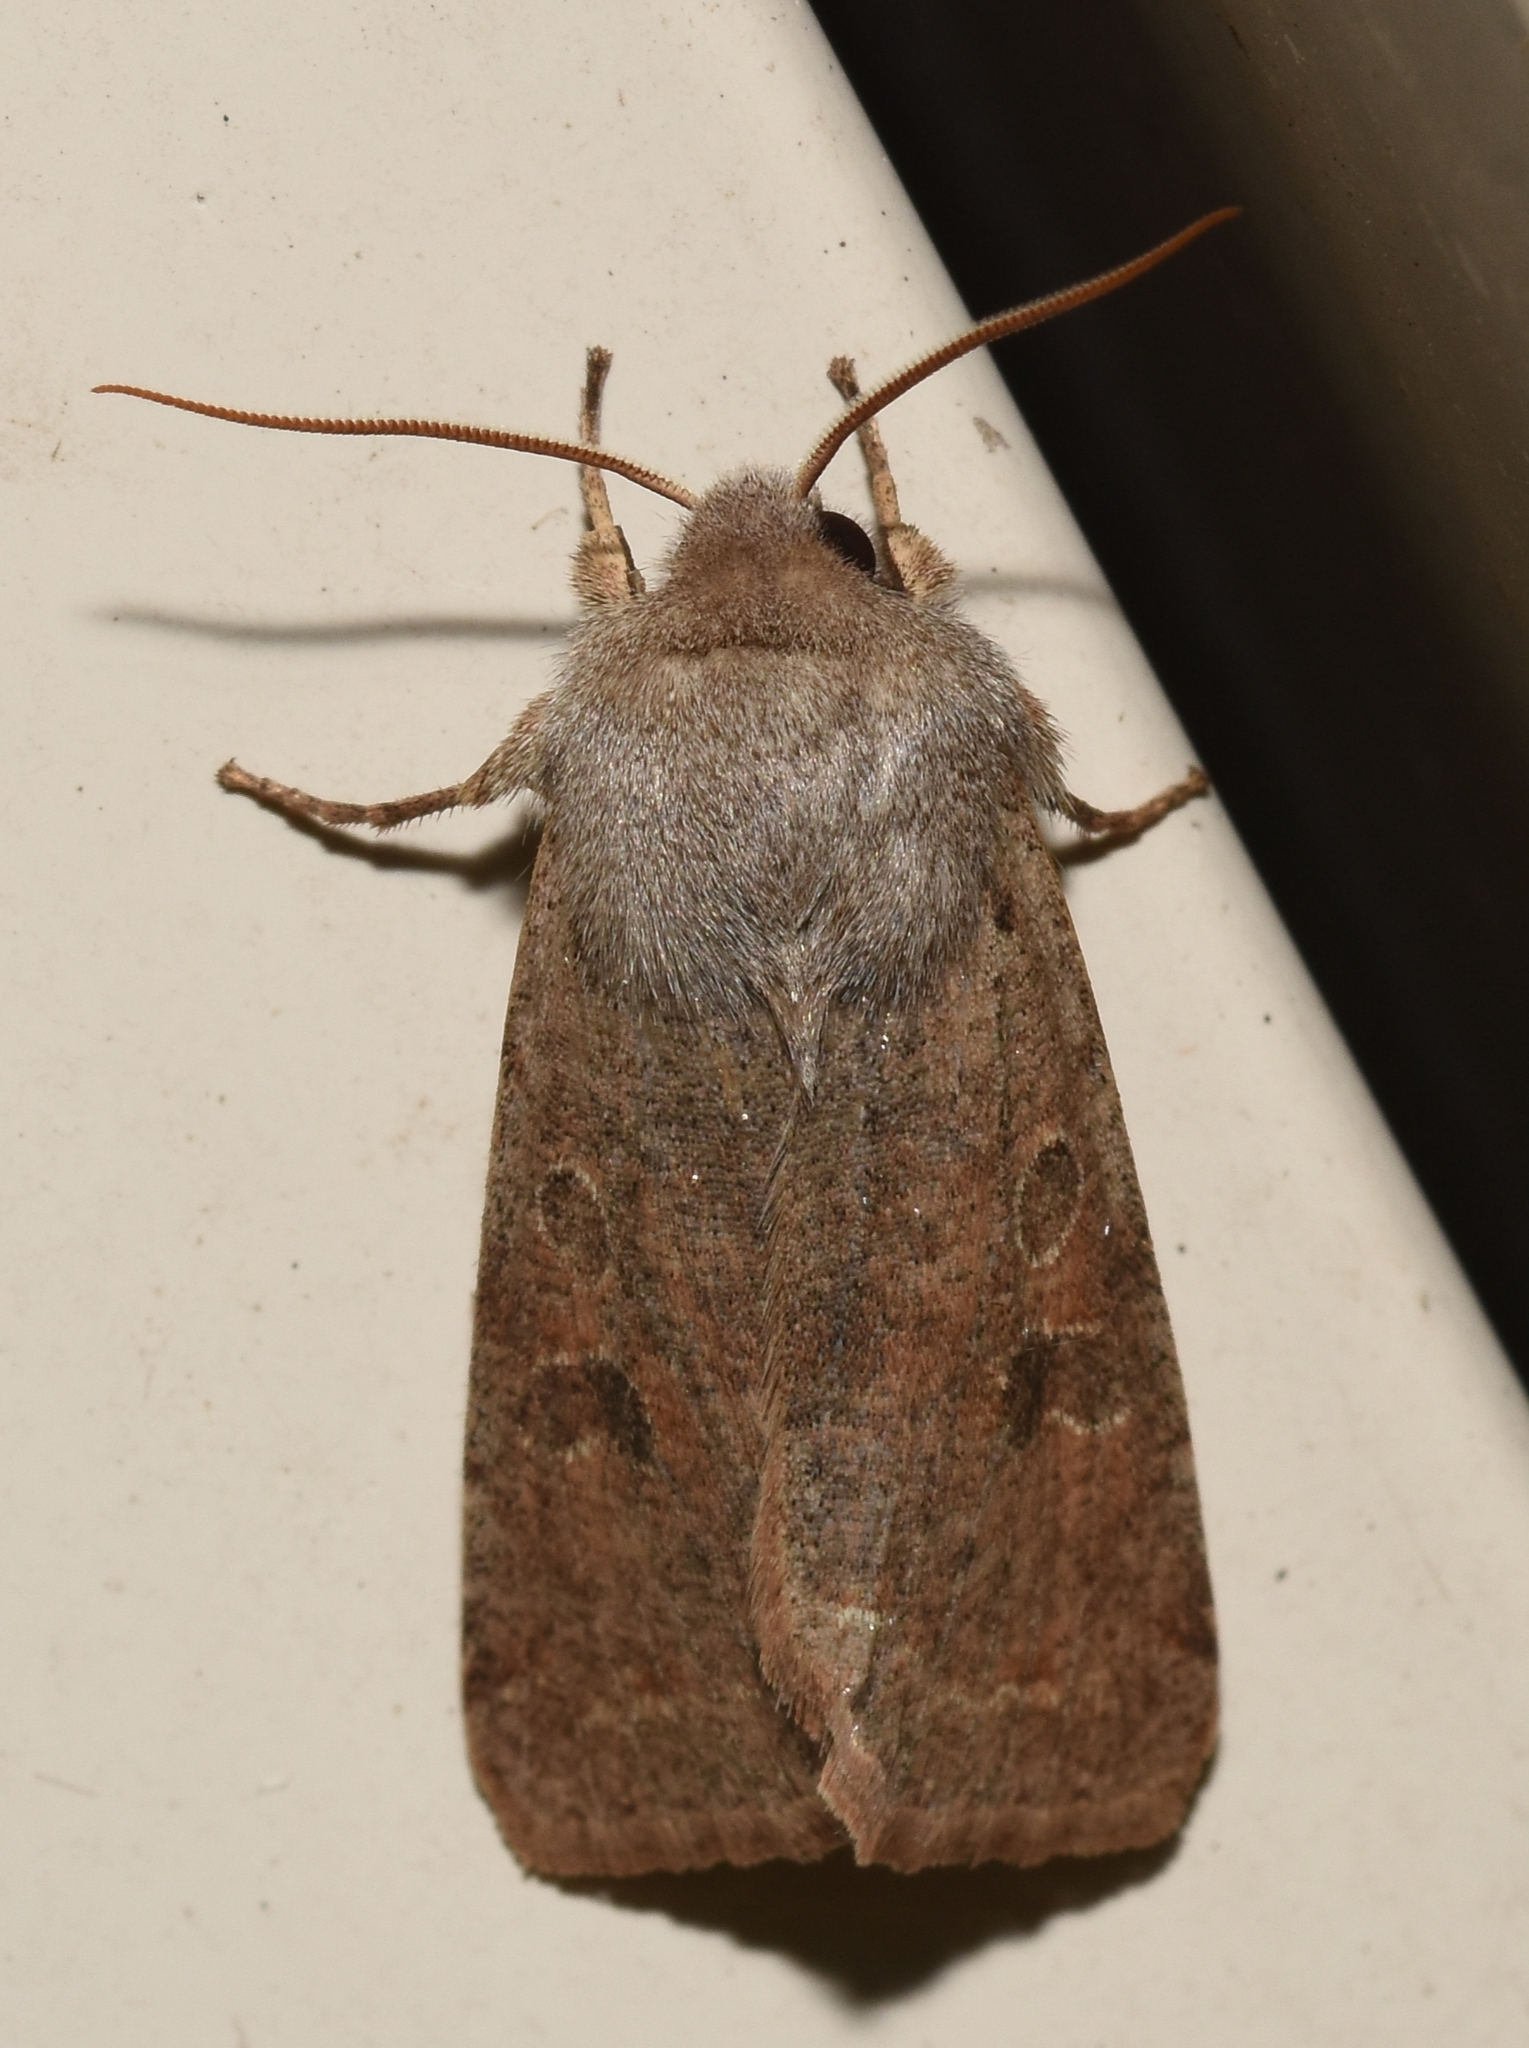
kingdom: Animalia
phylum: Arthropoda
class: Insecta
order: Lepidoptera
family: Noctuidae
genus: Orthosia
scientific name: Orthosia hibisci
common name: Green fruitworm
